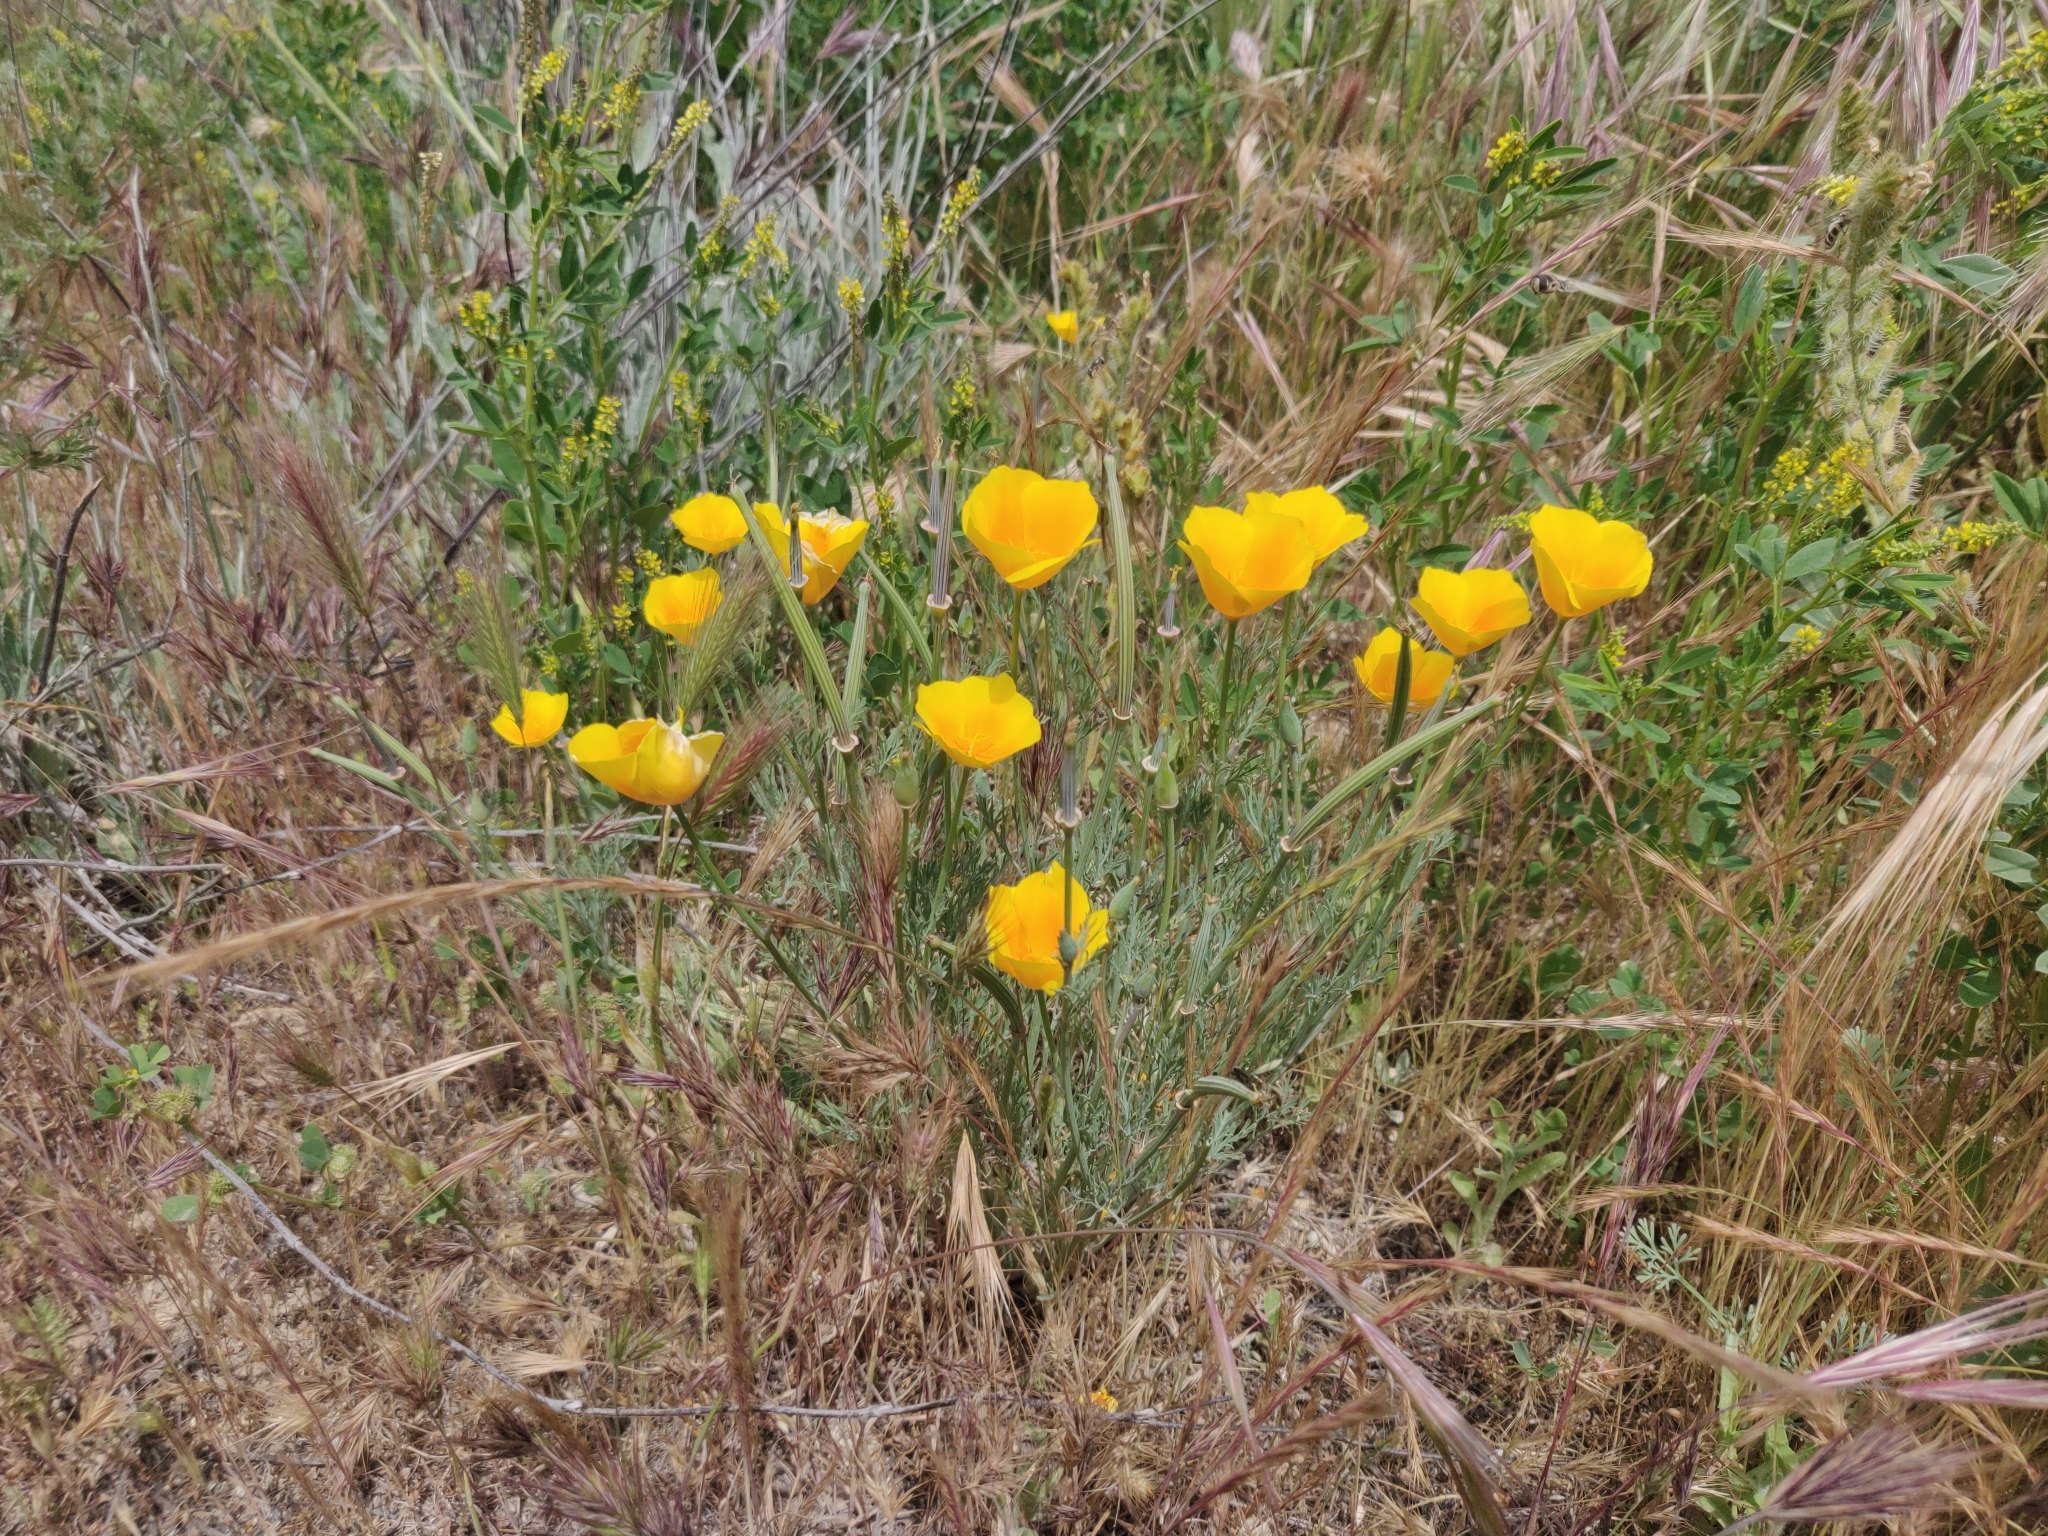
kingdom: Plantae
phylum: Tracheophyta
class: Magnoliopsida
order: Ranunculales
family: Papaveraceae
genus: Eschscholzia
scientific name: Eschscholzia californica
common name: California poppy
